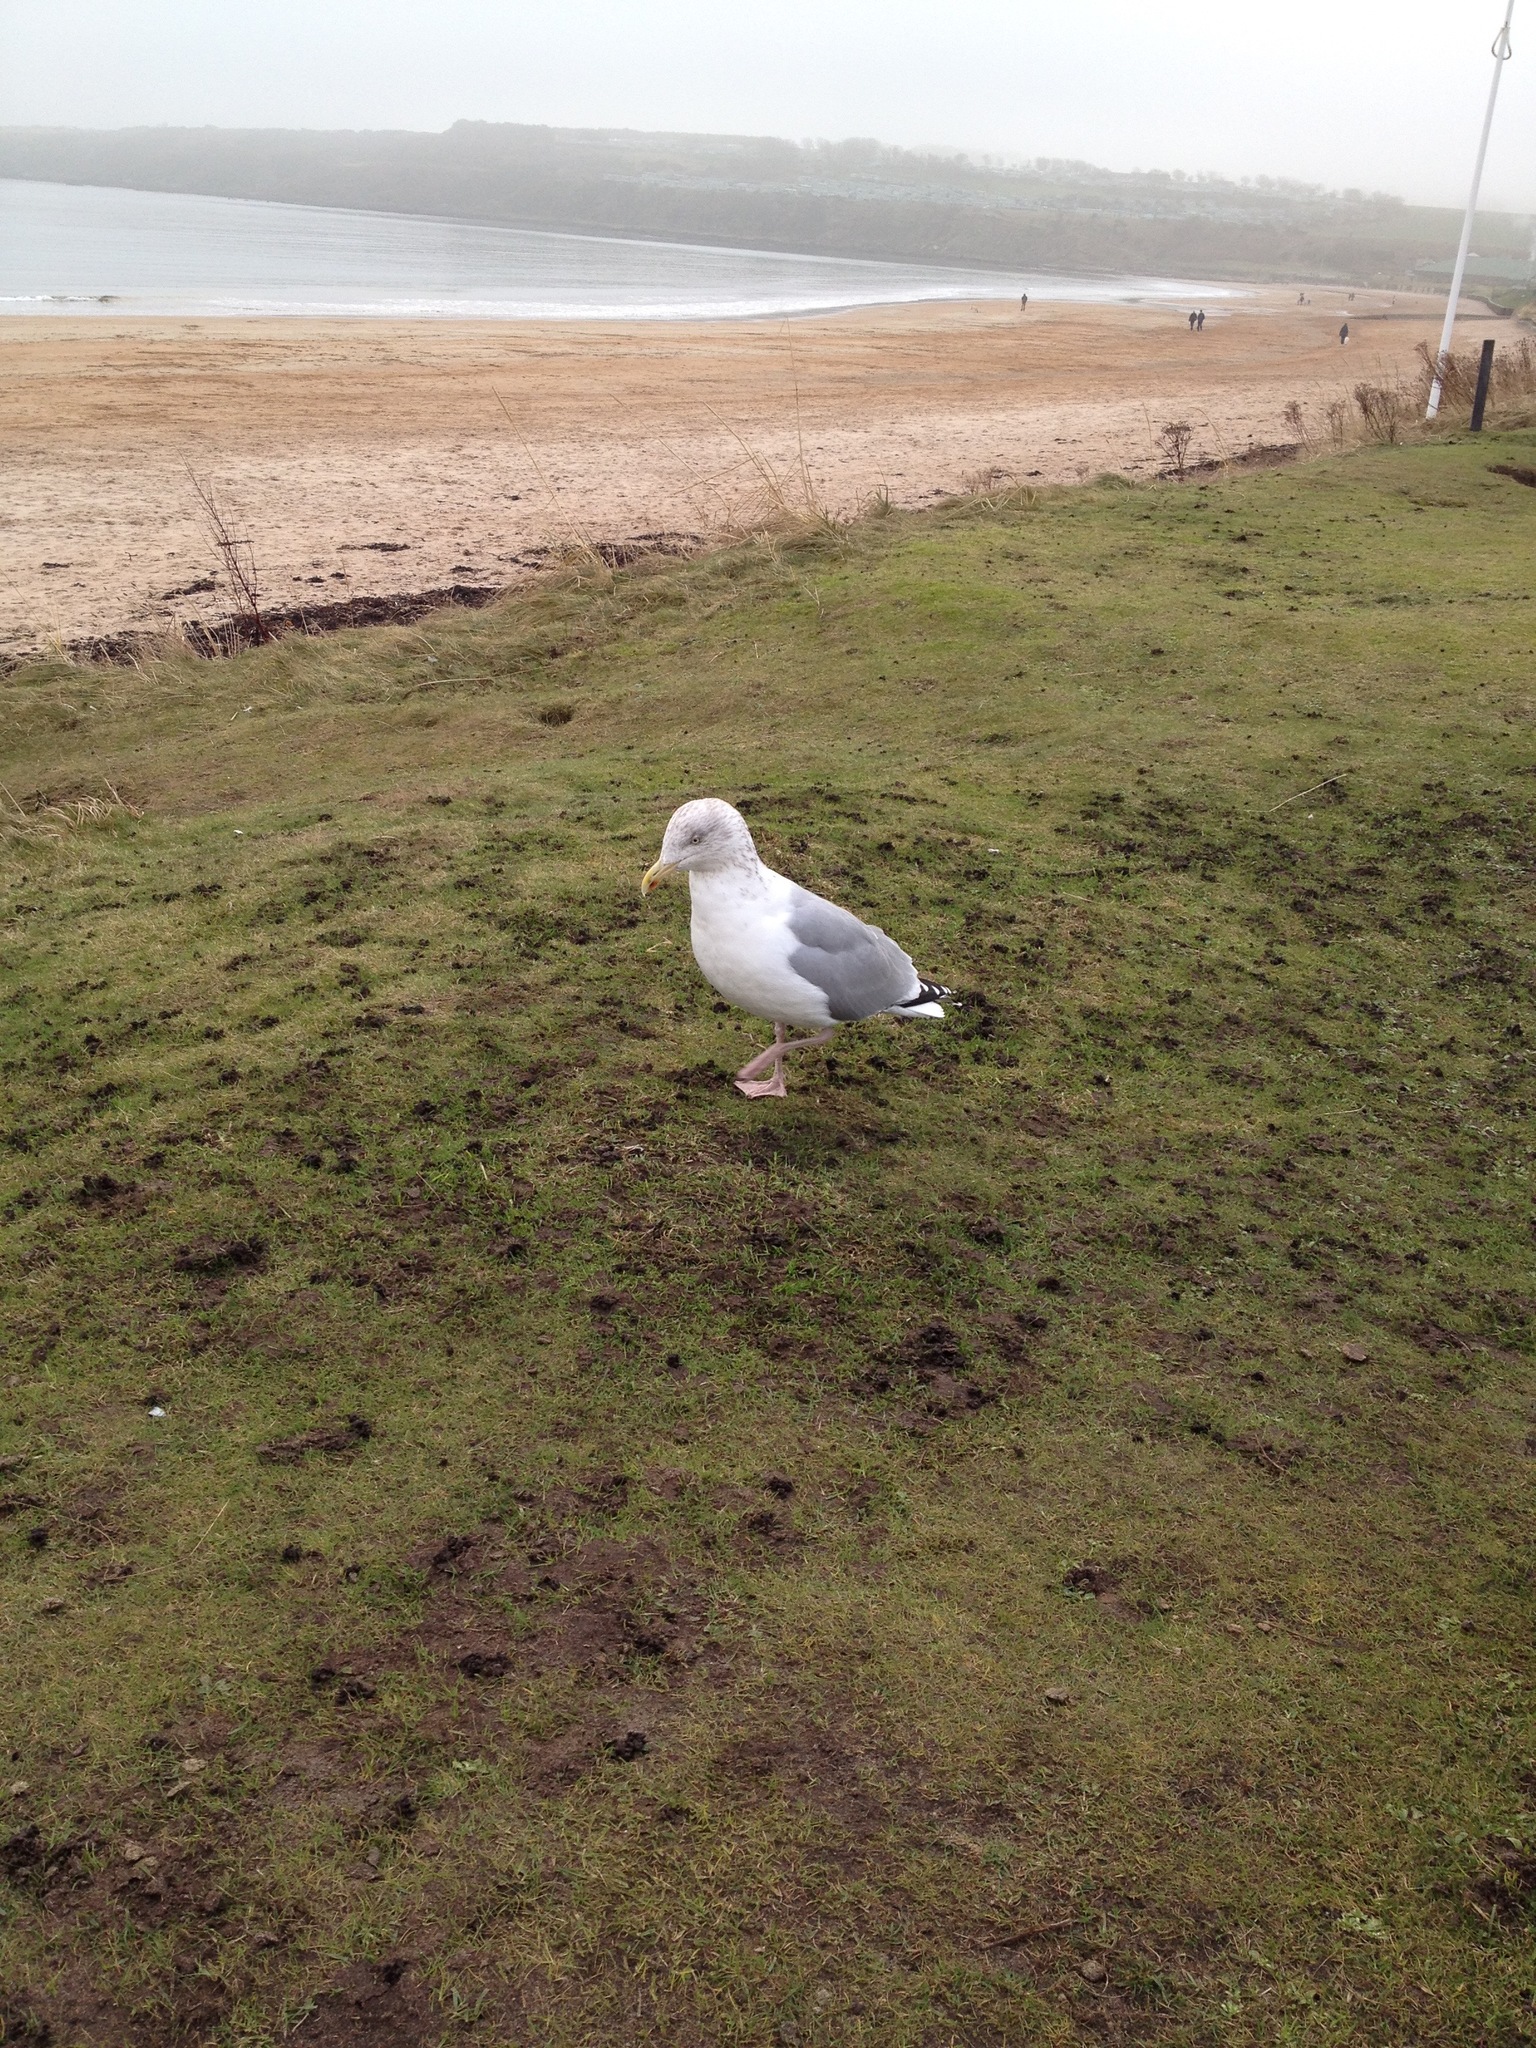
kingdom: Animalia
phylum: Chordata
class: Aves
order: Charadriiformes
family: Laridae
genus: Larus
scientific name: Larus argentatus
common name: Herring gull
